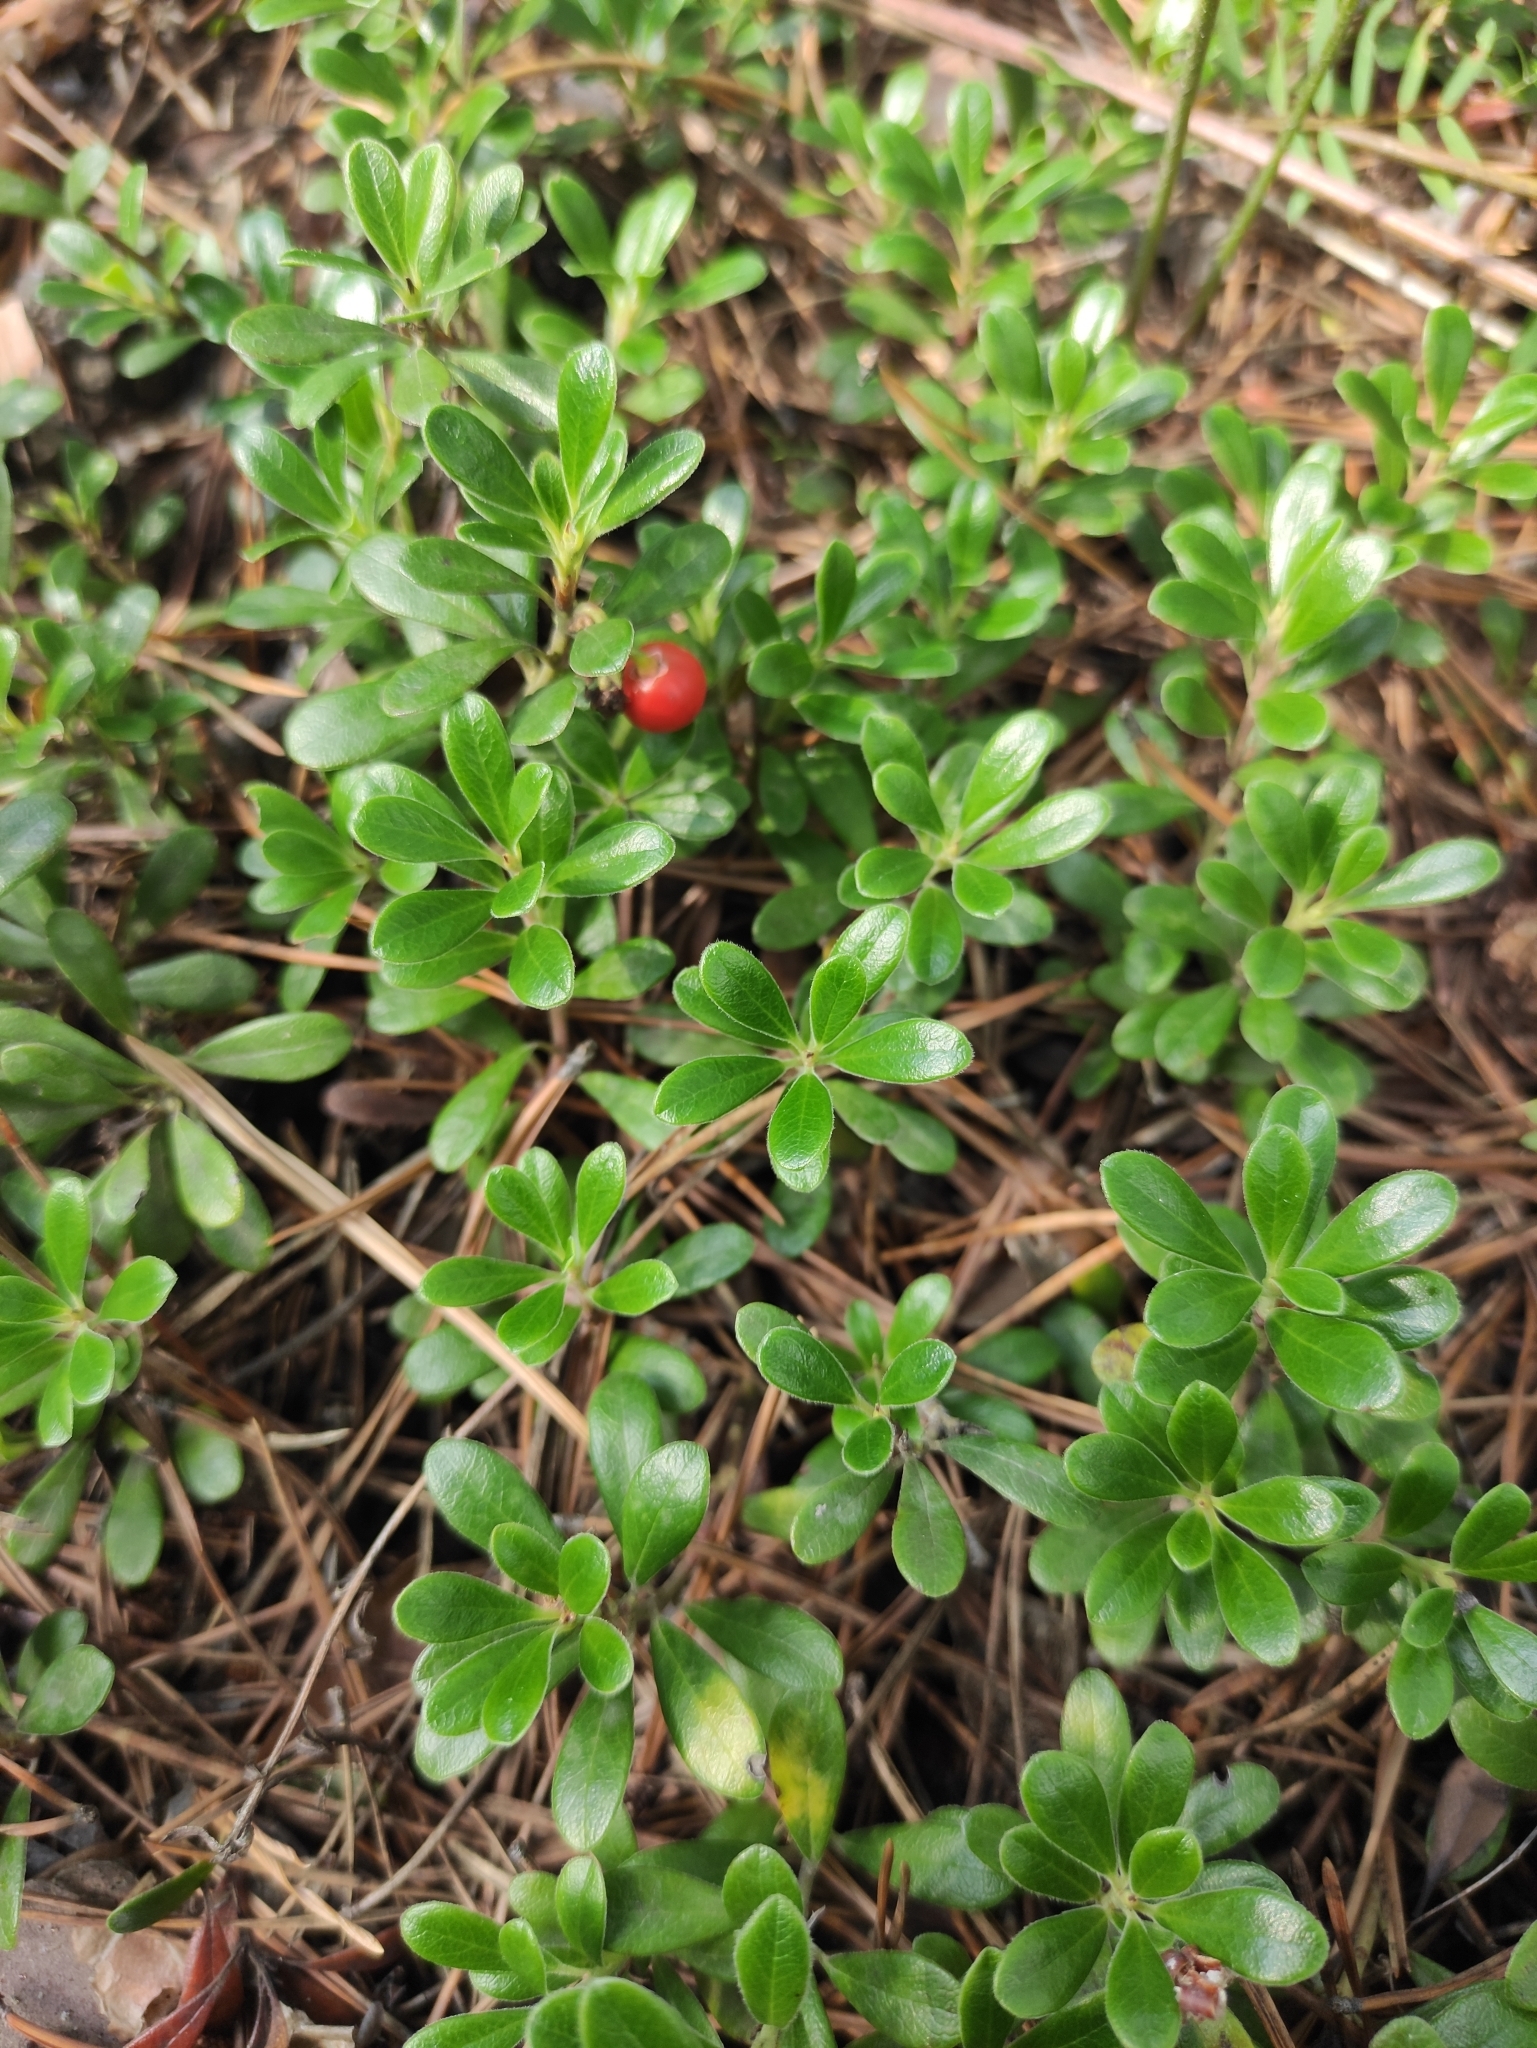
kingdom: Plantae
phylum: Tracheophyta
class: Magnoliopsida
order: Ericales
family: Ericaceae
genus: Arctostaphylos
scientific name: Arctostaphylos uva-ursi
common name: Bearberry
